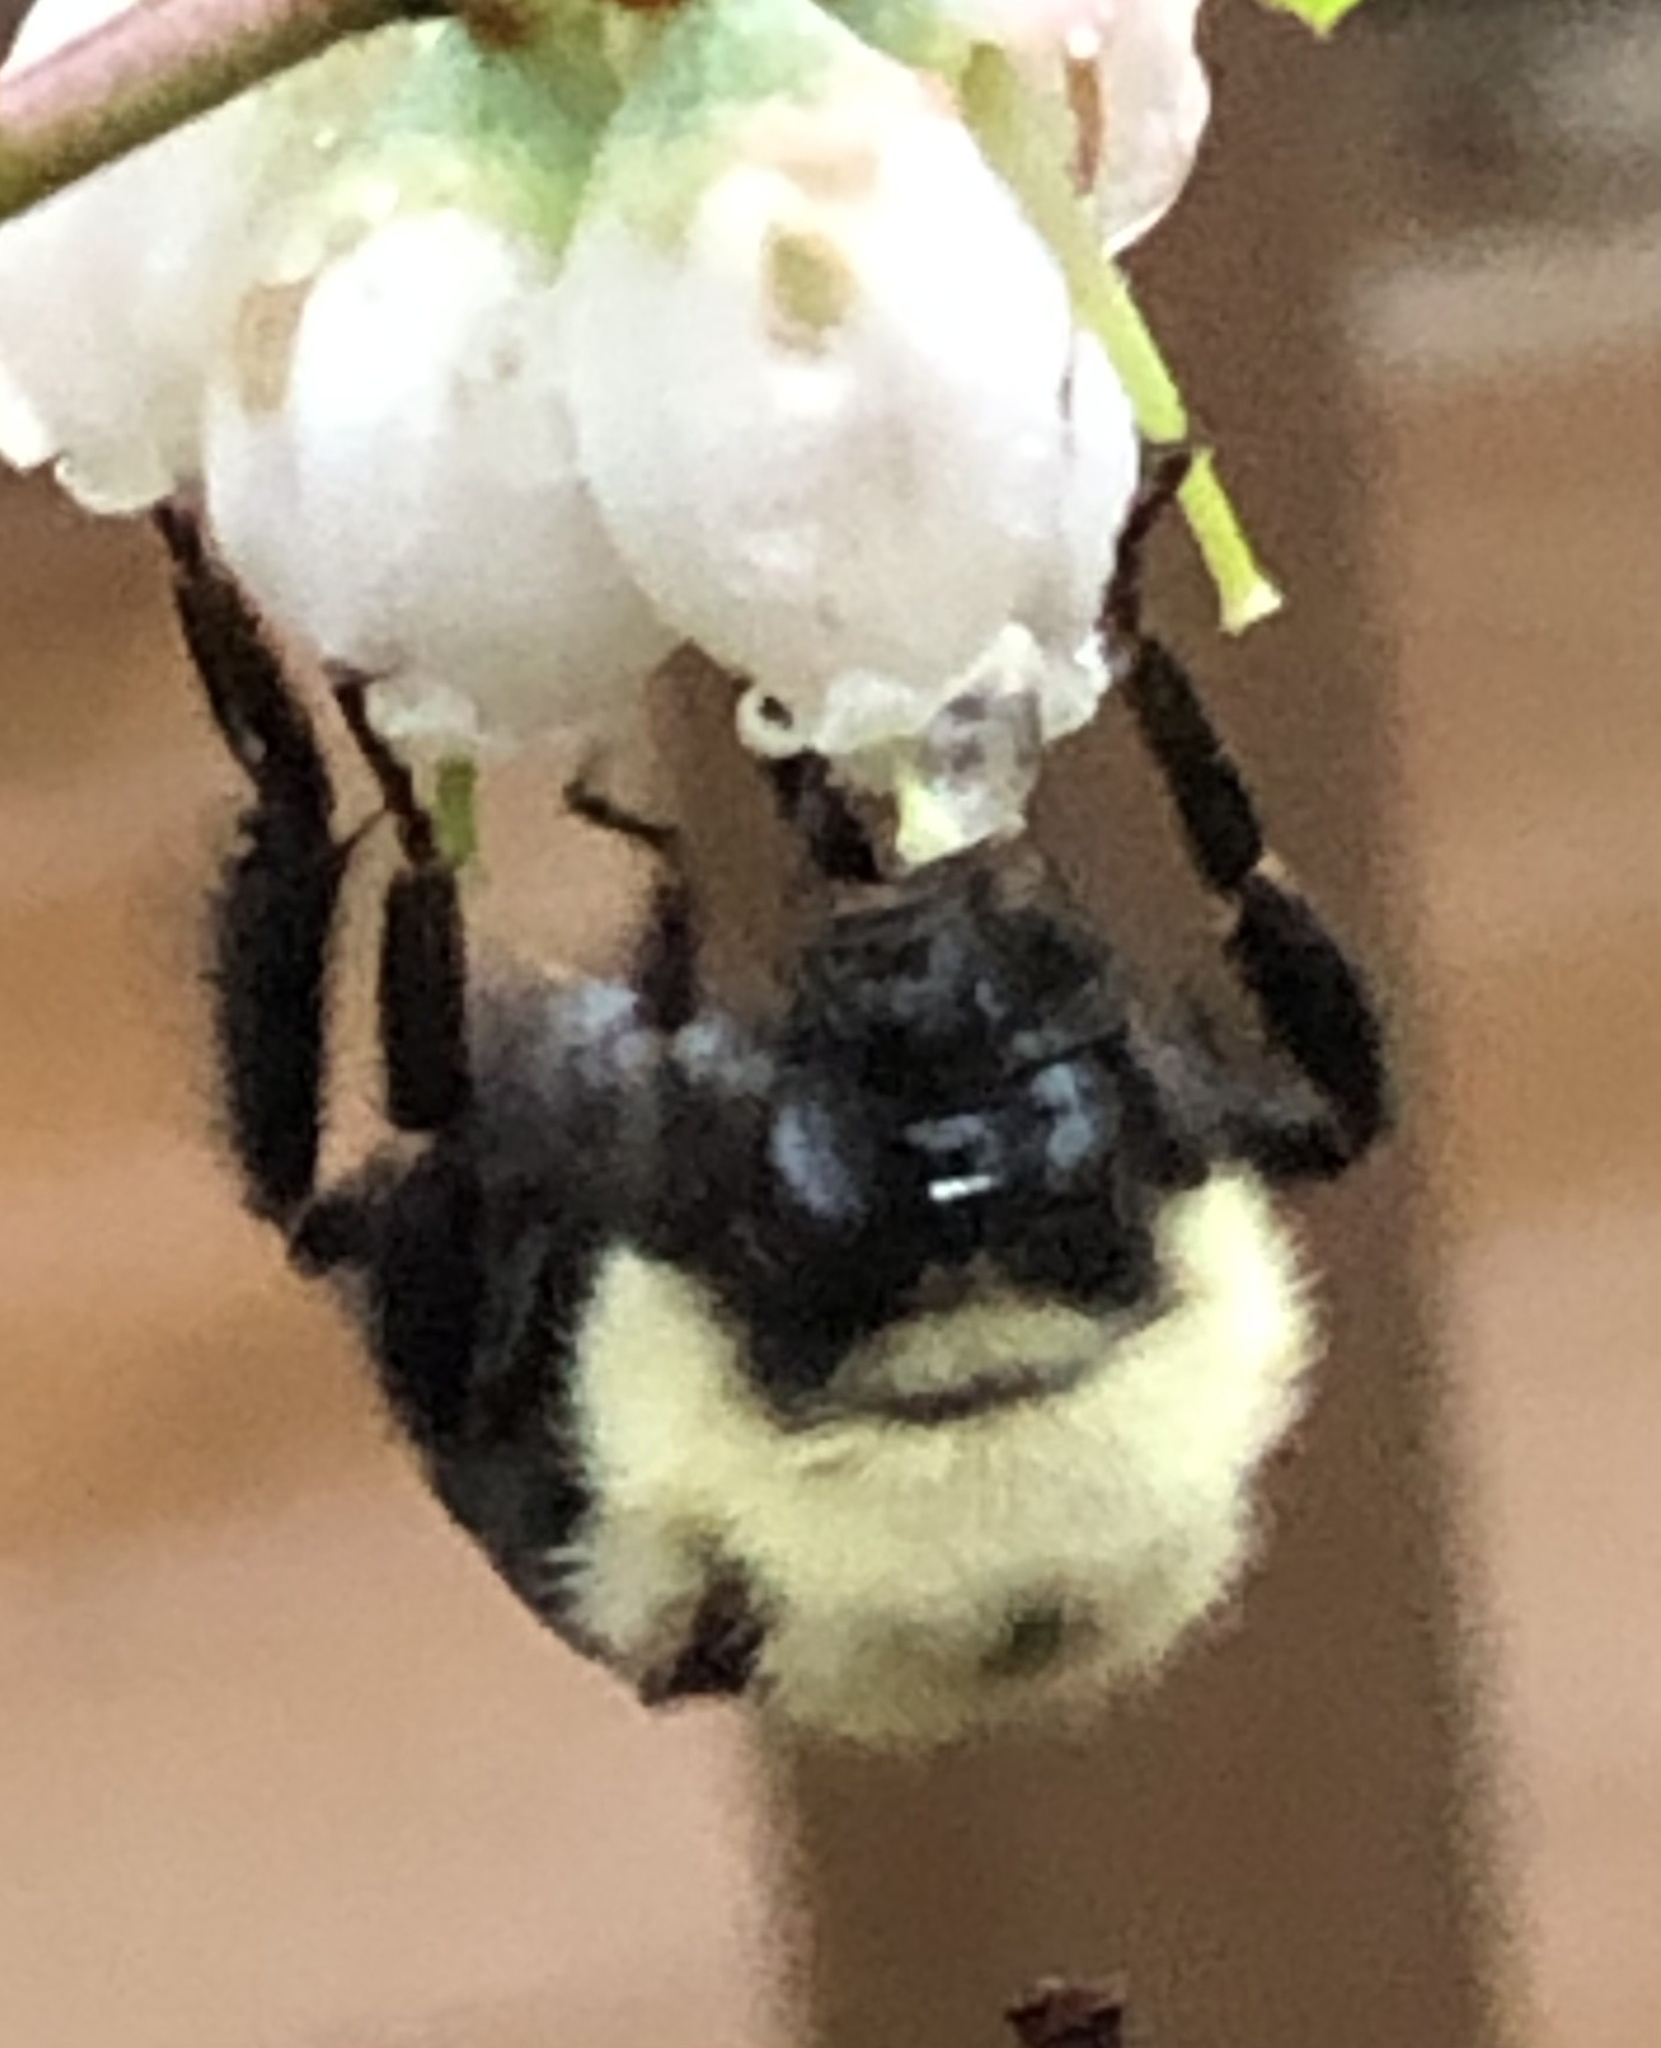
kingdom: Animalia
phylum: Arthropoda
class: Insecta
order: Hymenoptera
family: Apidae
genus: Bombus
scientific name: Bombus bimaculatus
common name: Two-spotted bumble bee
